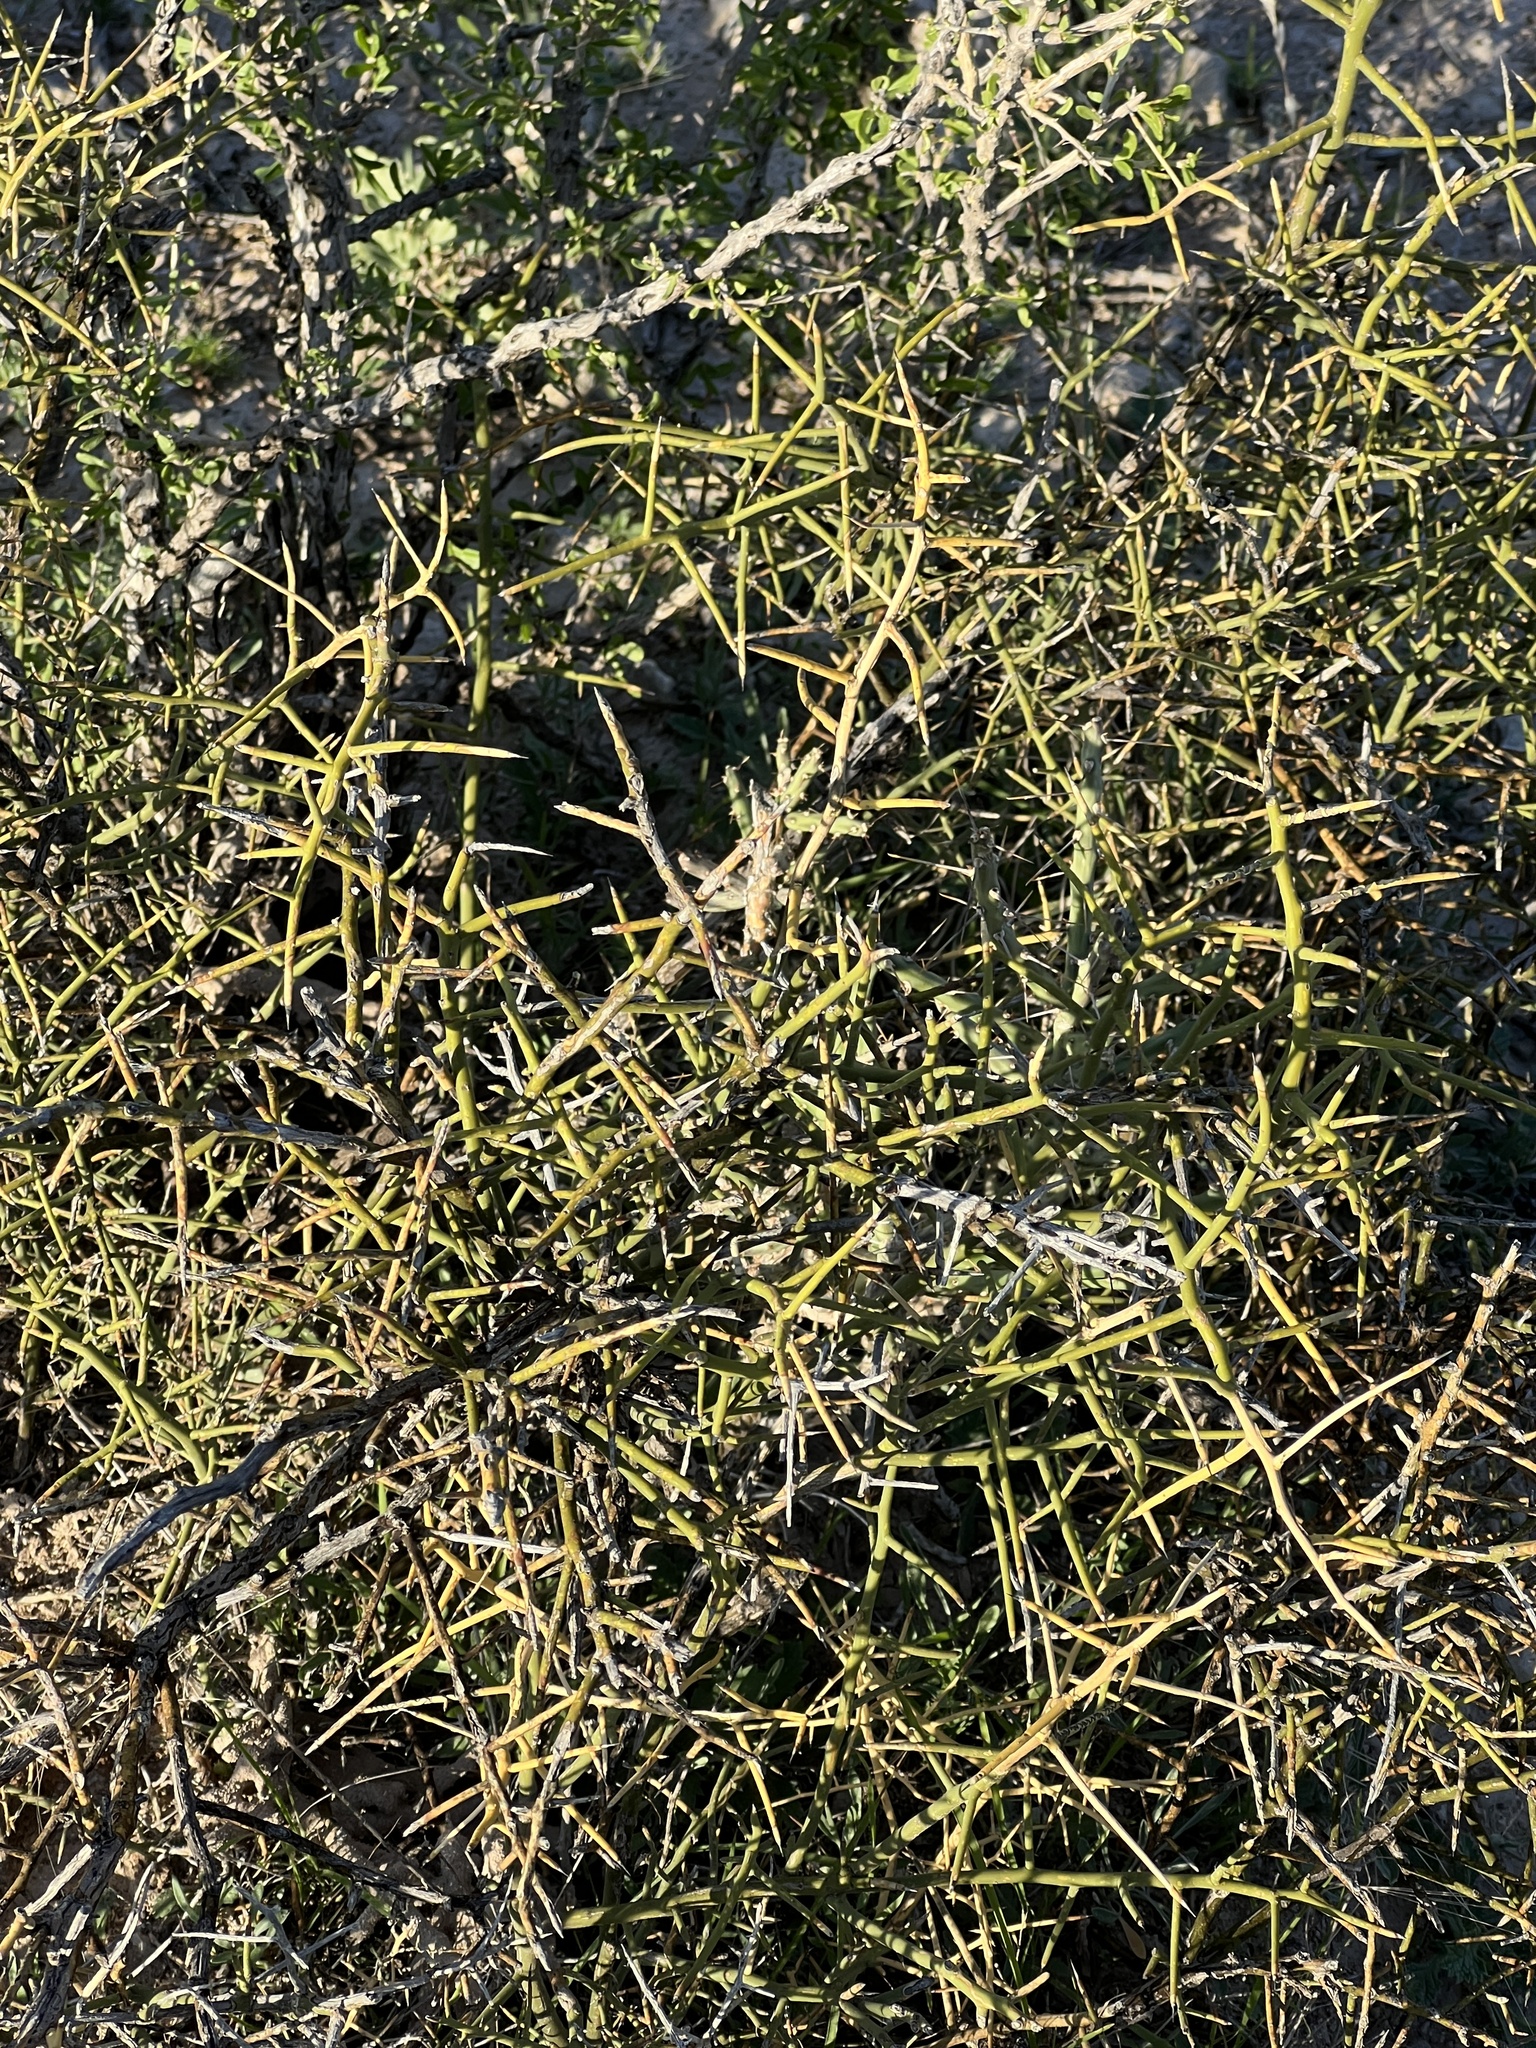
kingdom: Plantae
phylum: Tracheophyta
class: Magnoliopsida
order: Brassicales
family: Koeberliniaceae
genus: Koeberlinia
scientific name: Koeberlinia spinosa
